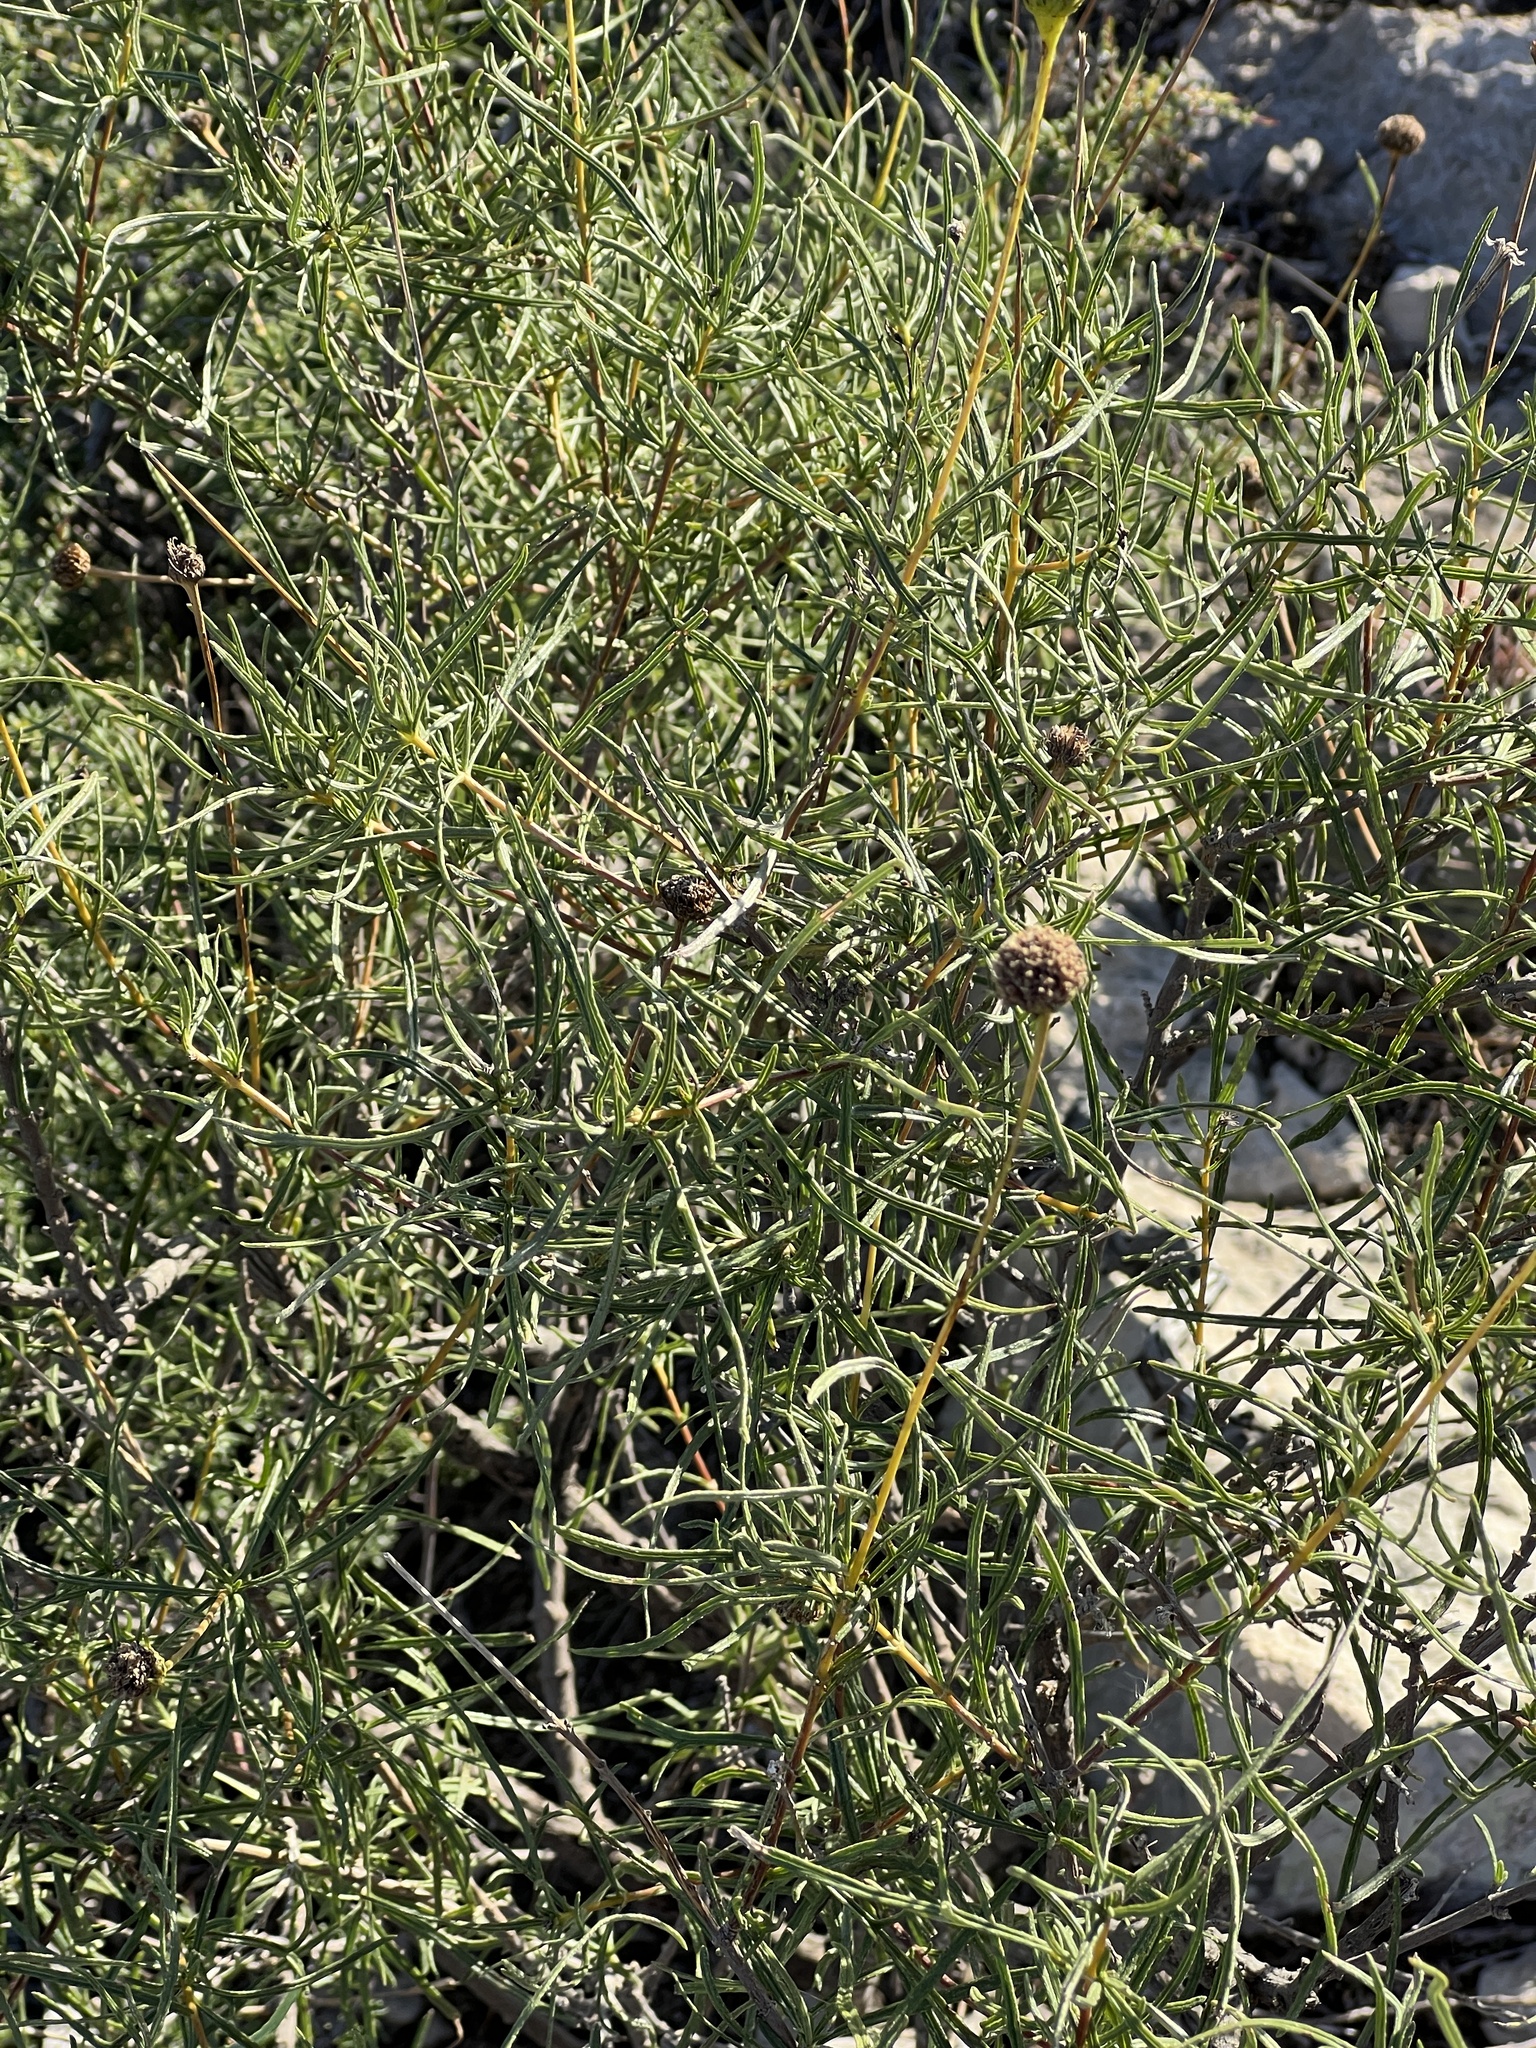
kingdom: Plantae
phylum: Tracheophyta
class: Magnoliopsida
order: Asterales
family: Asteraceae
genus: Sidneya
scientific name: Sidneya tenuifolia
